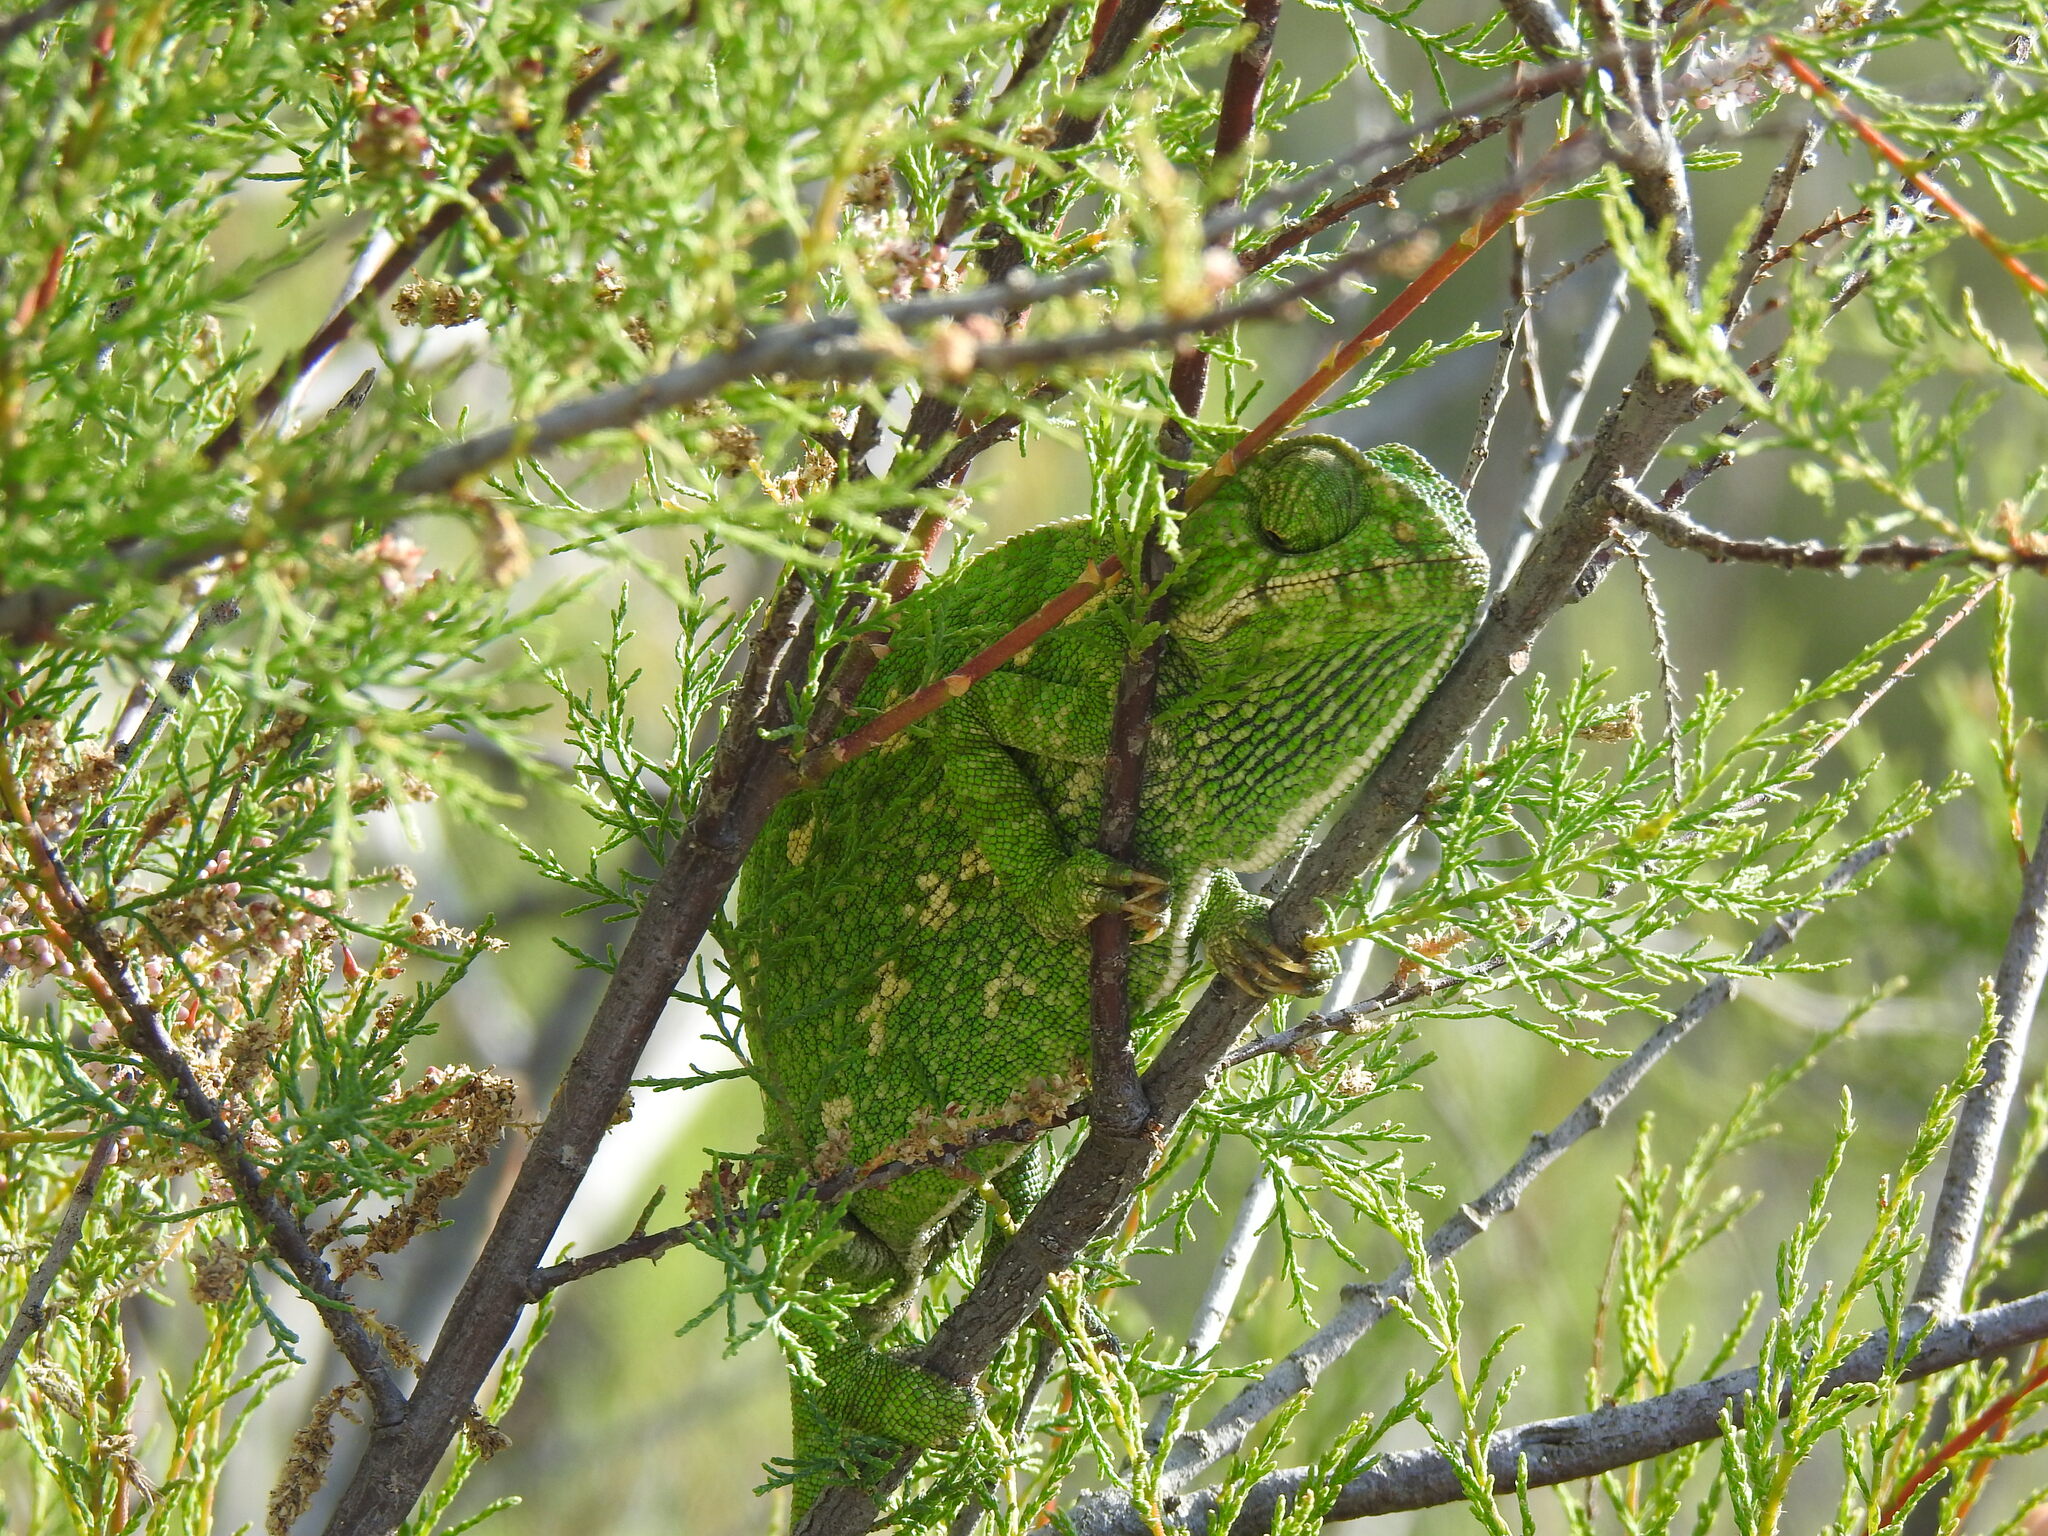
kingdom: Animalia
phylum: Chordata
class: Squamata
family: Chamaeleonidae
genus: Chamaeleo
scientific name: Chamaeleo chamaeleon
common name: Mediterranean chameleon
